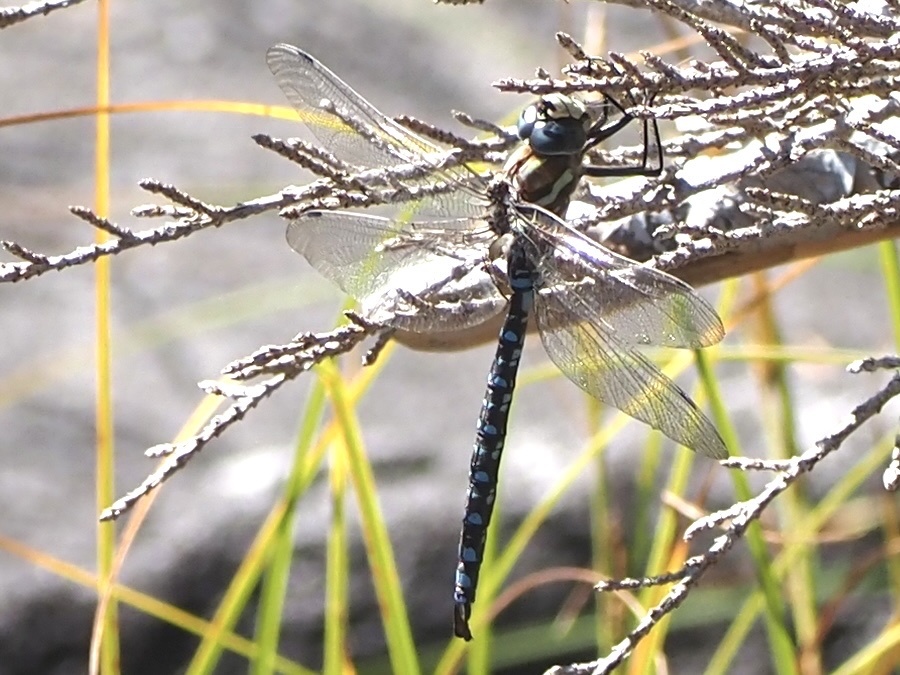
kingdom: Animalia
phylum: Arthropoda
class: Insecta
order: Odonata
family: Aeshnidae
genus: Aeshna
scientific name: Aeshna palmata
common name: Paddle-tailed darner
